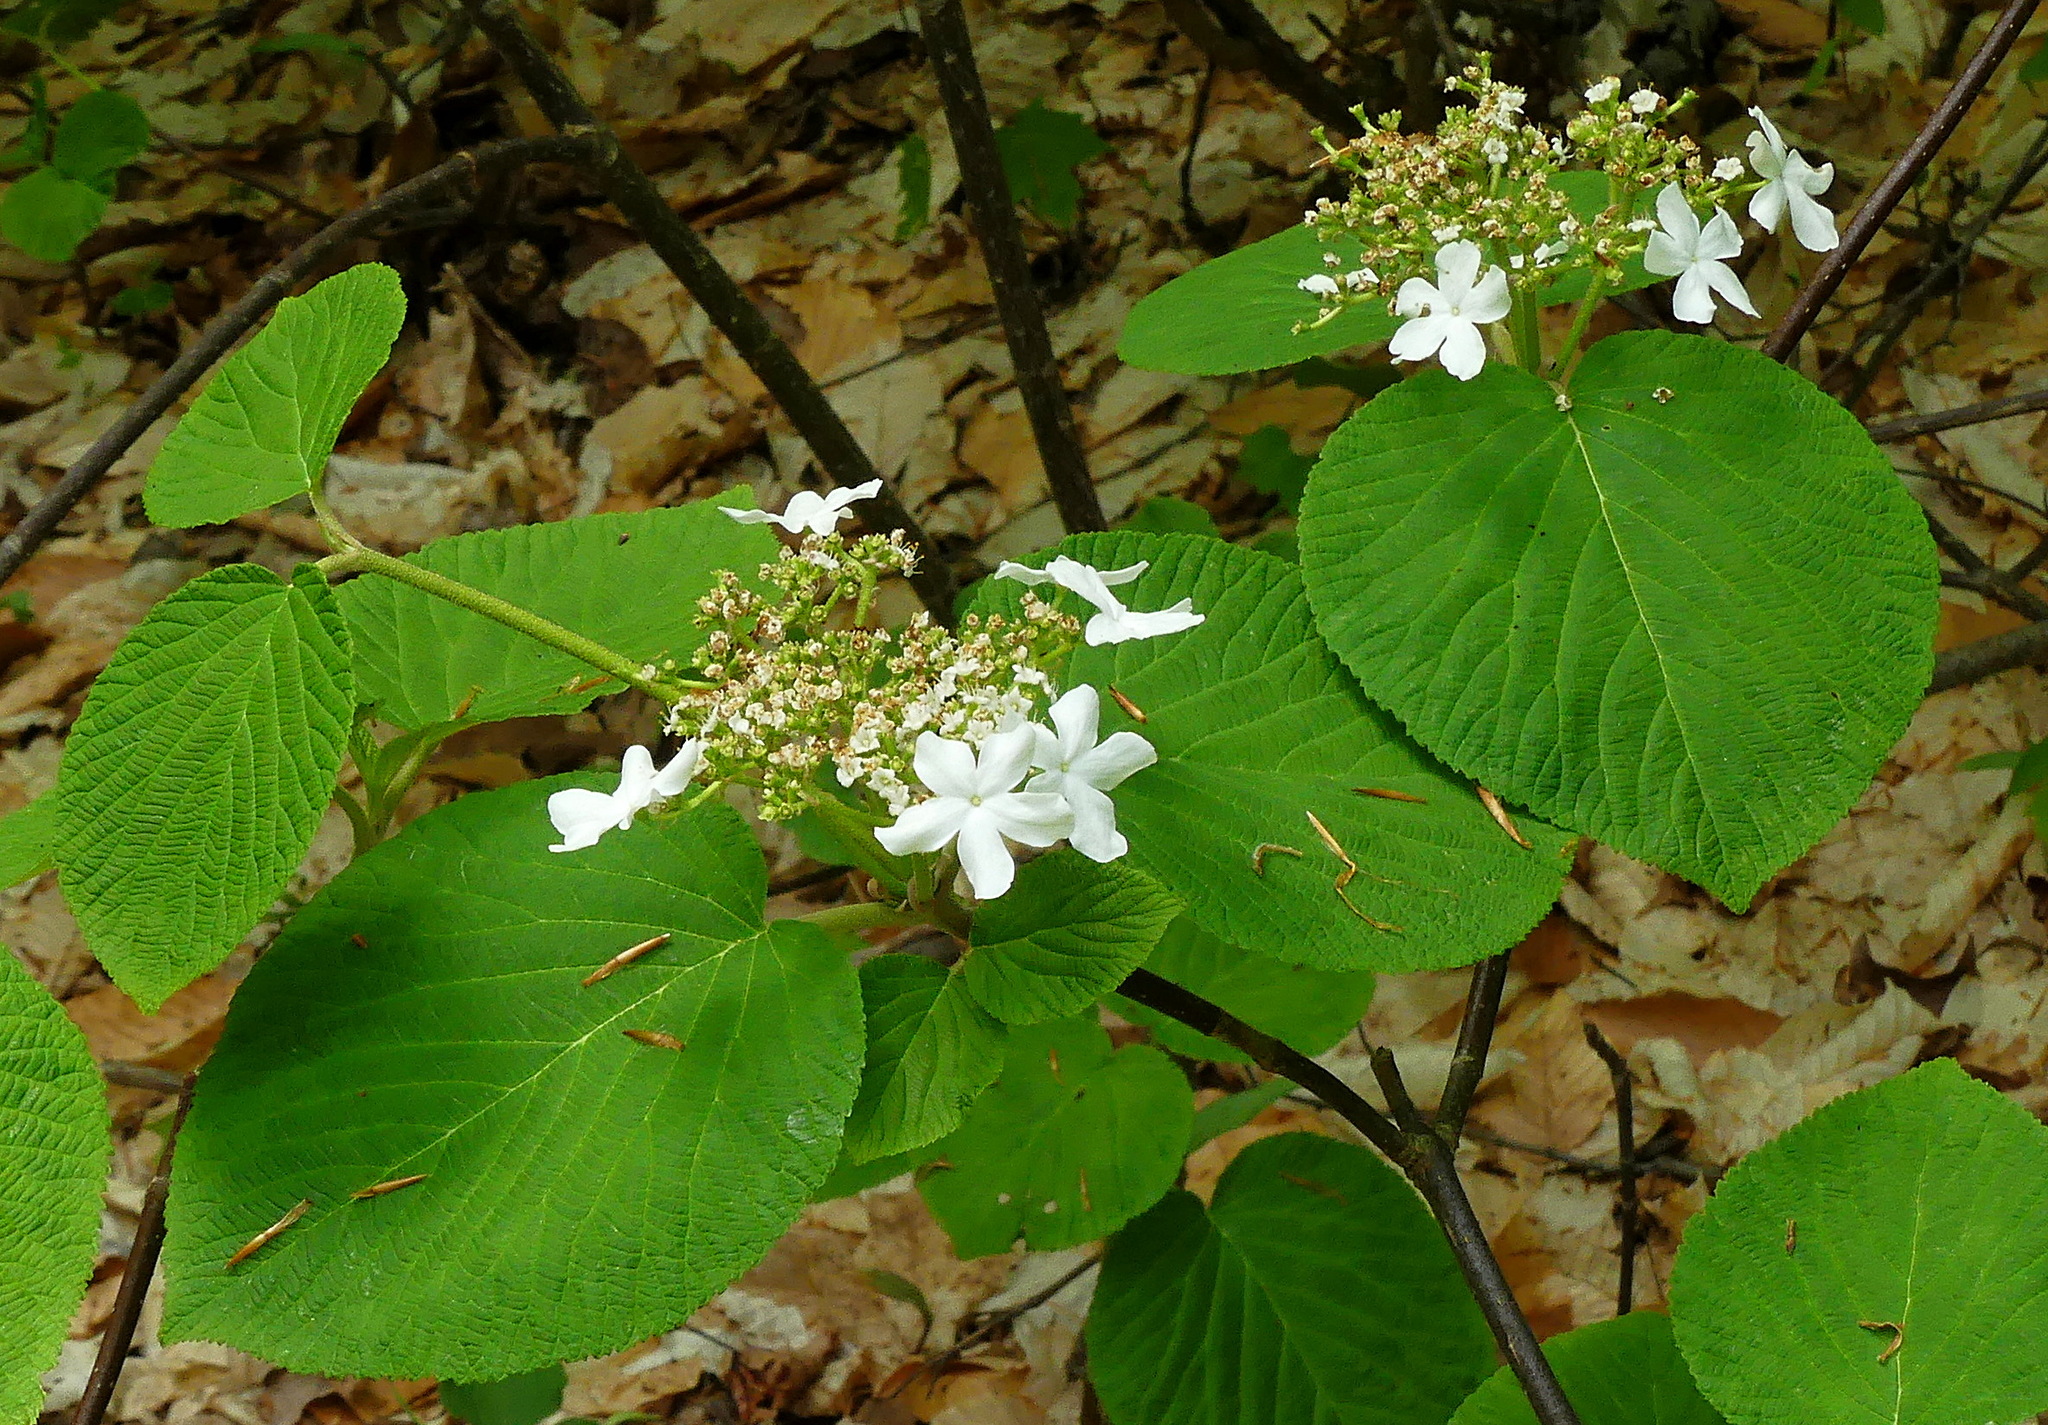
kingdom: Plantae
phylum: Tracheophyta
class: Magnoliopsida
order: Dipsacales
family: Viburnaceae
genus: Viburnum
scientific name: Viburnum lantanoides
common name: Hobblebush
